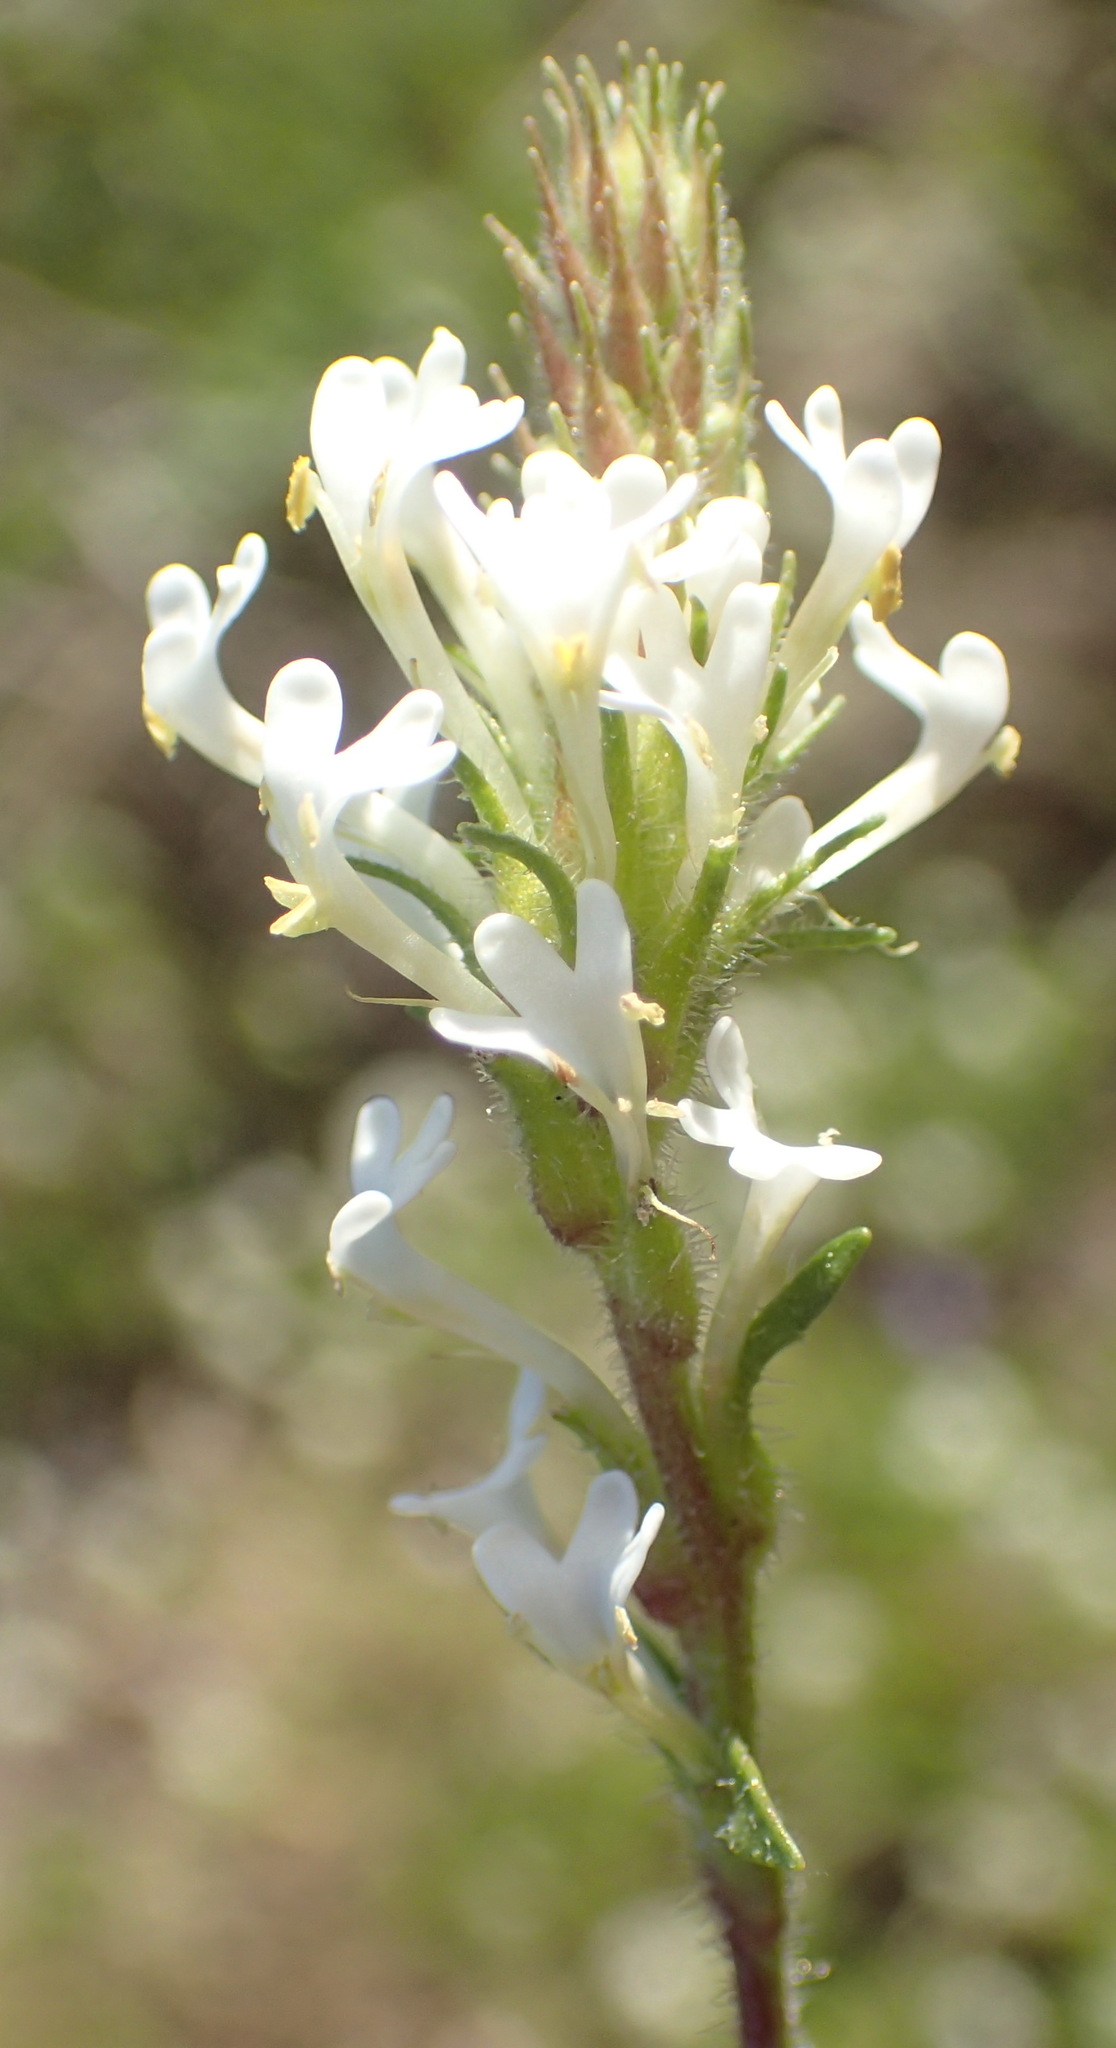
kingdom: Plantae
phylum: Tracheophyta
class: Magnoliopsida
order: Lamiales
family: Scrophulariaceae
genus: Dischisma
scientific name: Dischisma ciliatum
